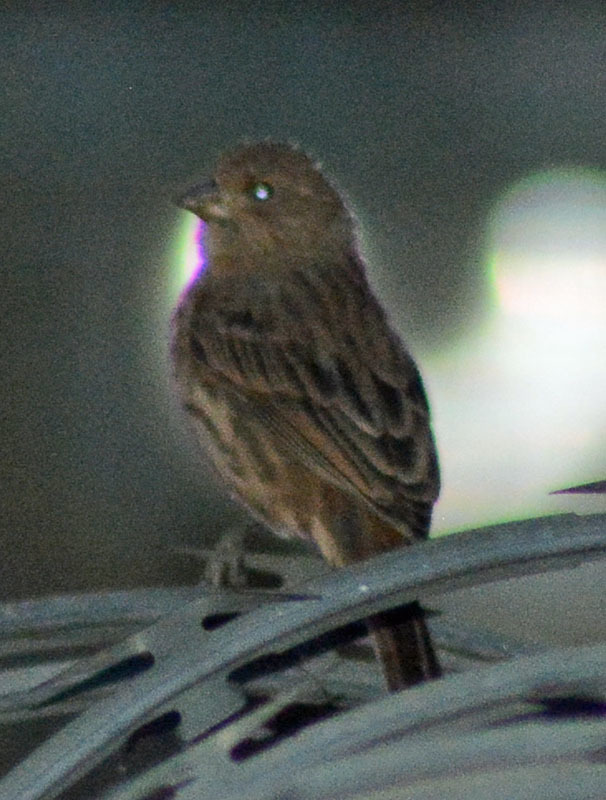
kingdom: Animalia
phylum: Chordata
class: Aves
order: Passeriformes
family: Fringillidae
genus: Haemorhous
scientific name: Haemorhous mexicanus
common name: House finch
